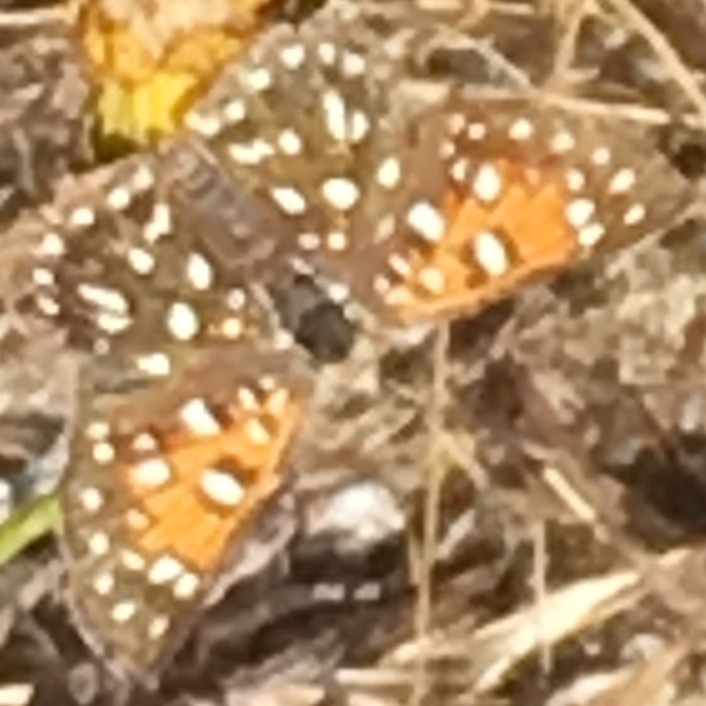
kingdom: Animalia
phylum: Arthropoda
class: Insecta
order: Lepidoptera
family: Riodinidae
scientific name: Riodinidae
